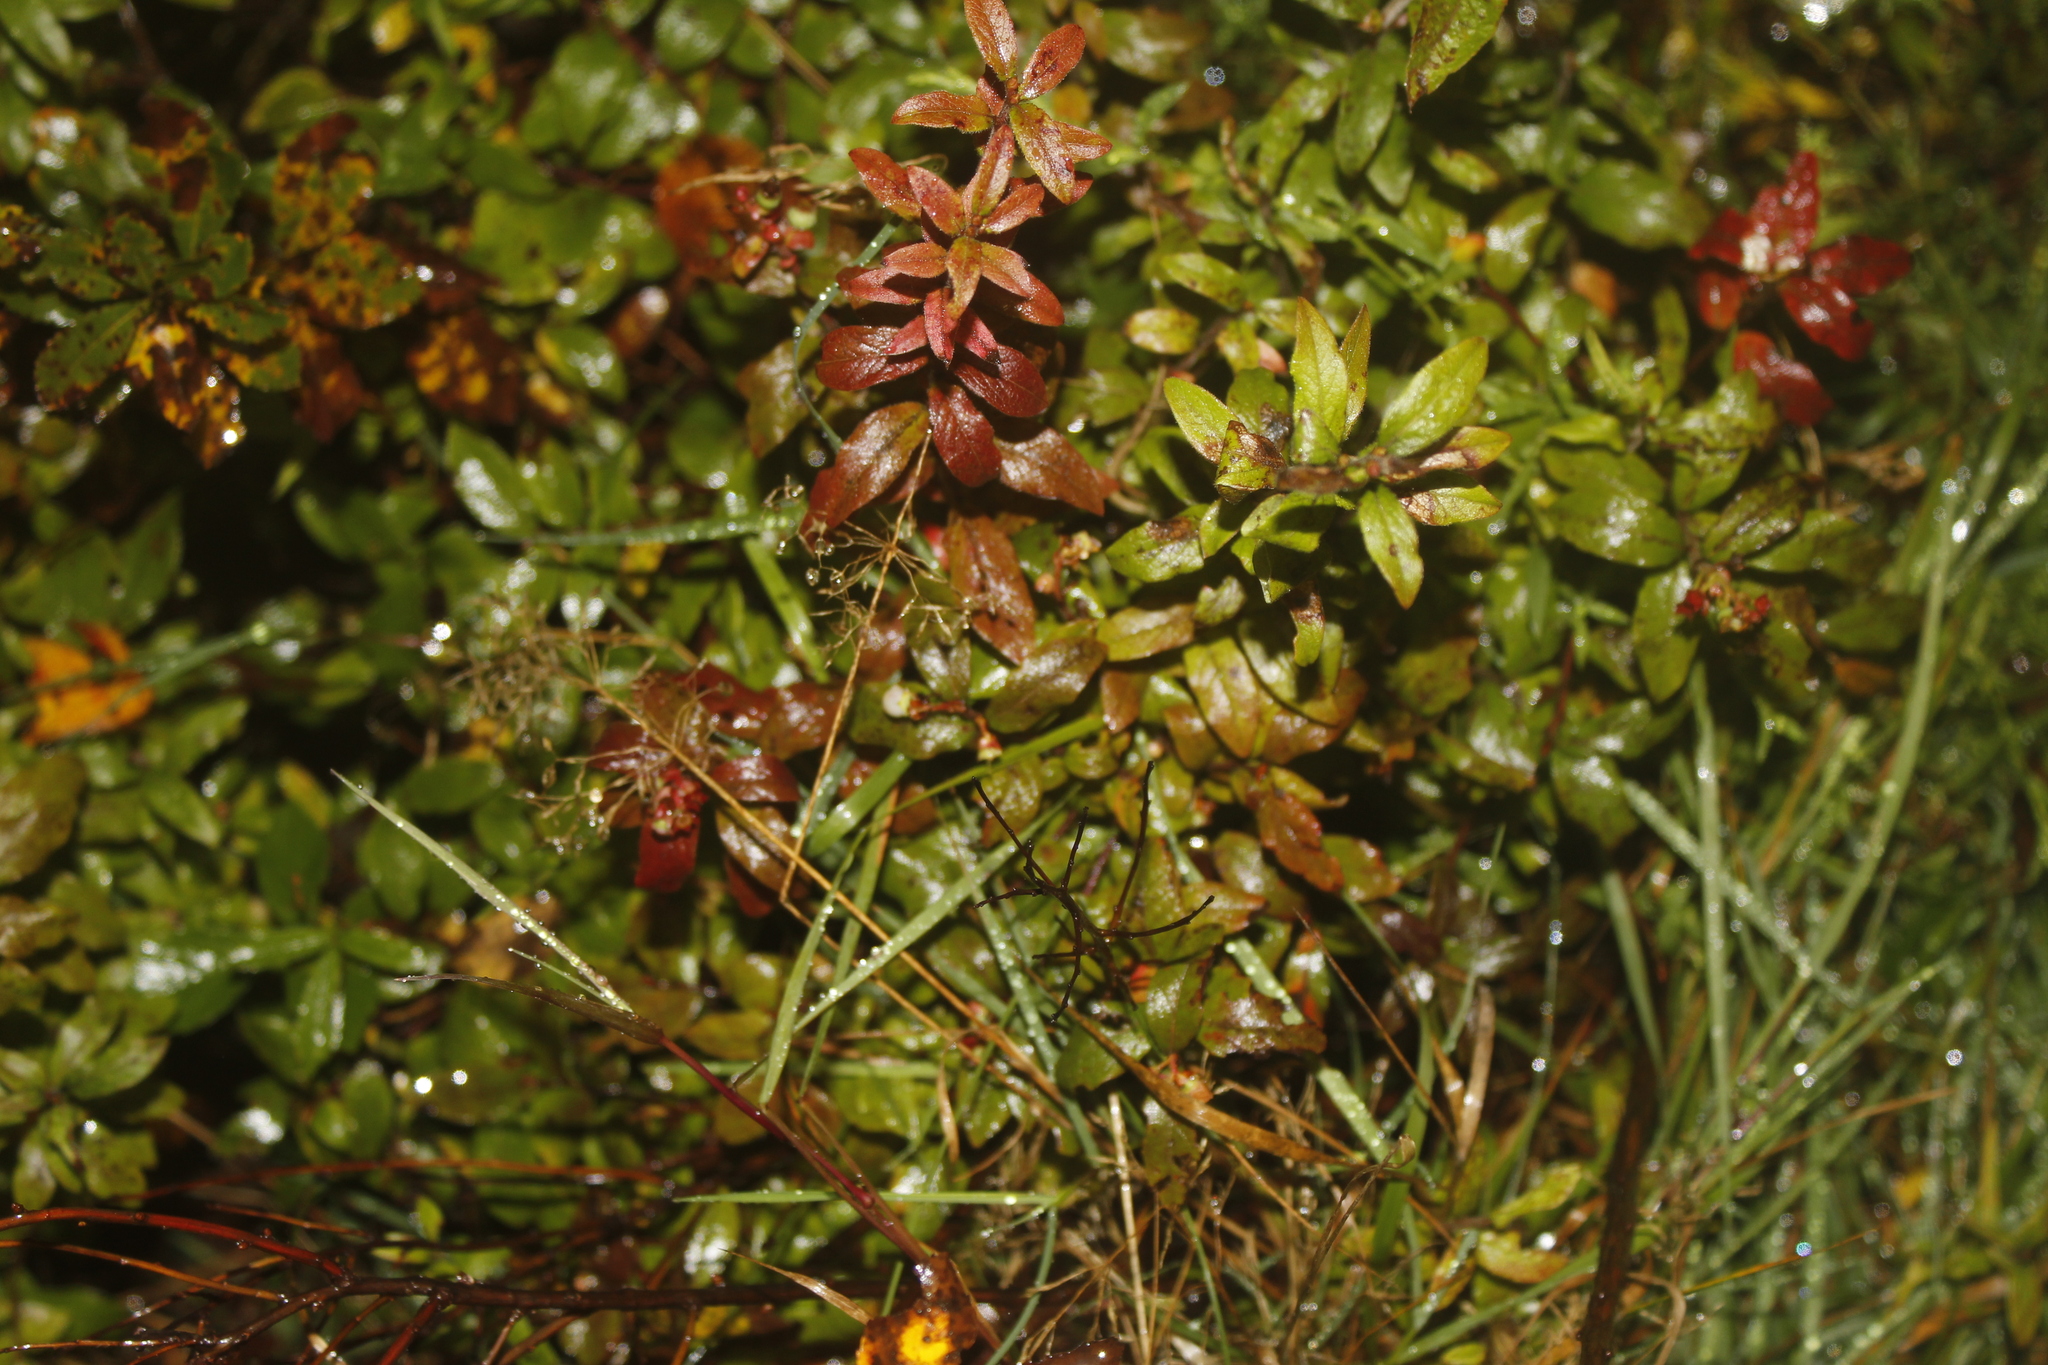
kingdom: Plantae
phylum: Tracheophyta
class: Magnoliopsida
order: Ericales
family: Ericaceae
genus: Vaccinium
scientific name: Vaccinium myrtilloides
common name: Canada blueberry
